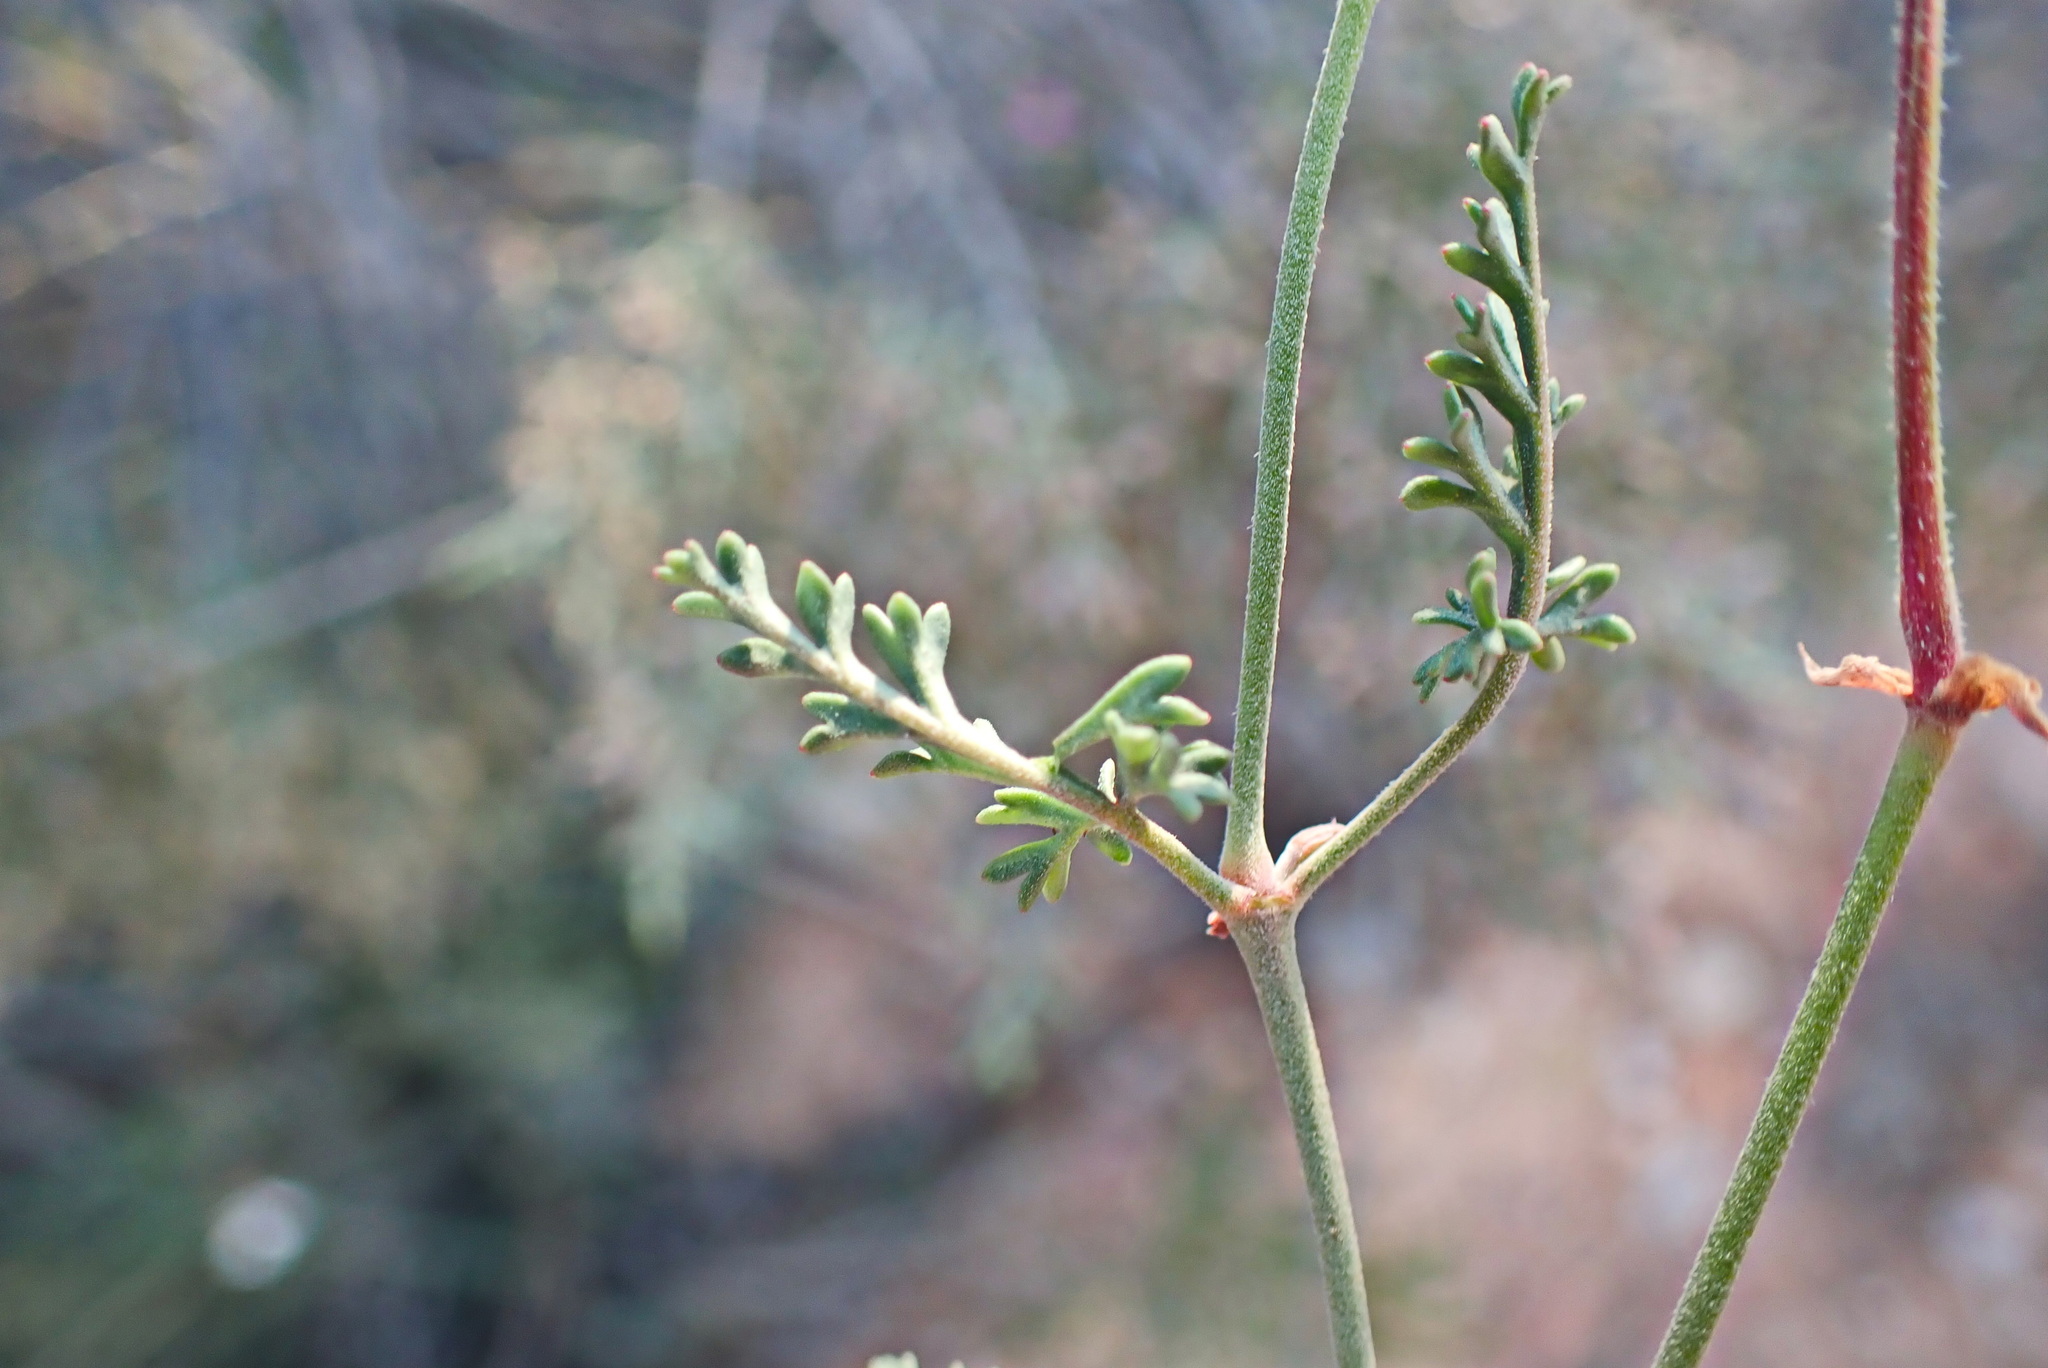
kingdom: Plantae
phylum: Tracheophyta
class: Magnoliopsida
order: Geraniales
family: Geraniaceae
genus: Pelargonium
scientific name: Pelargonium caucalifolium
